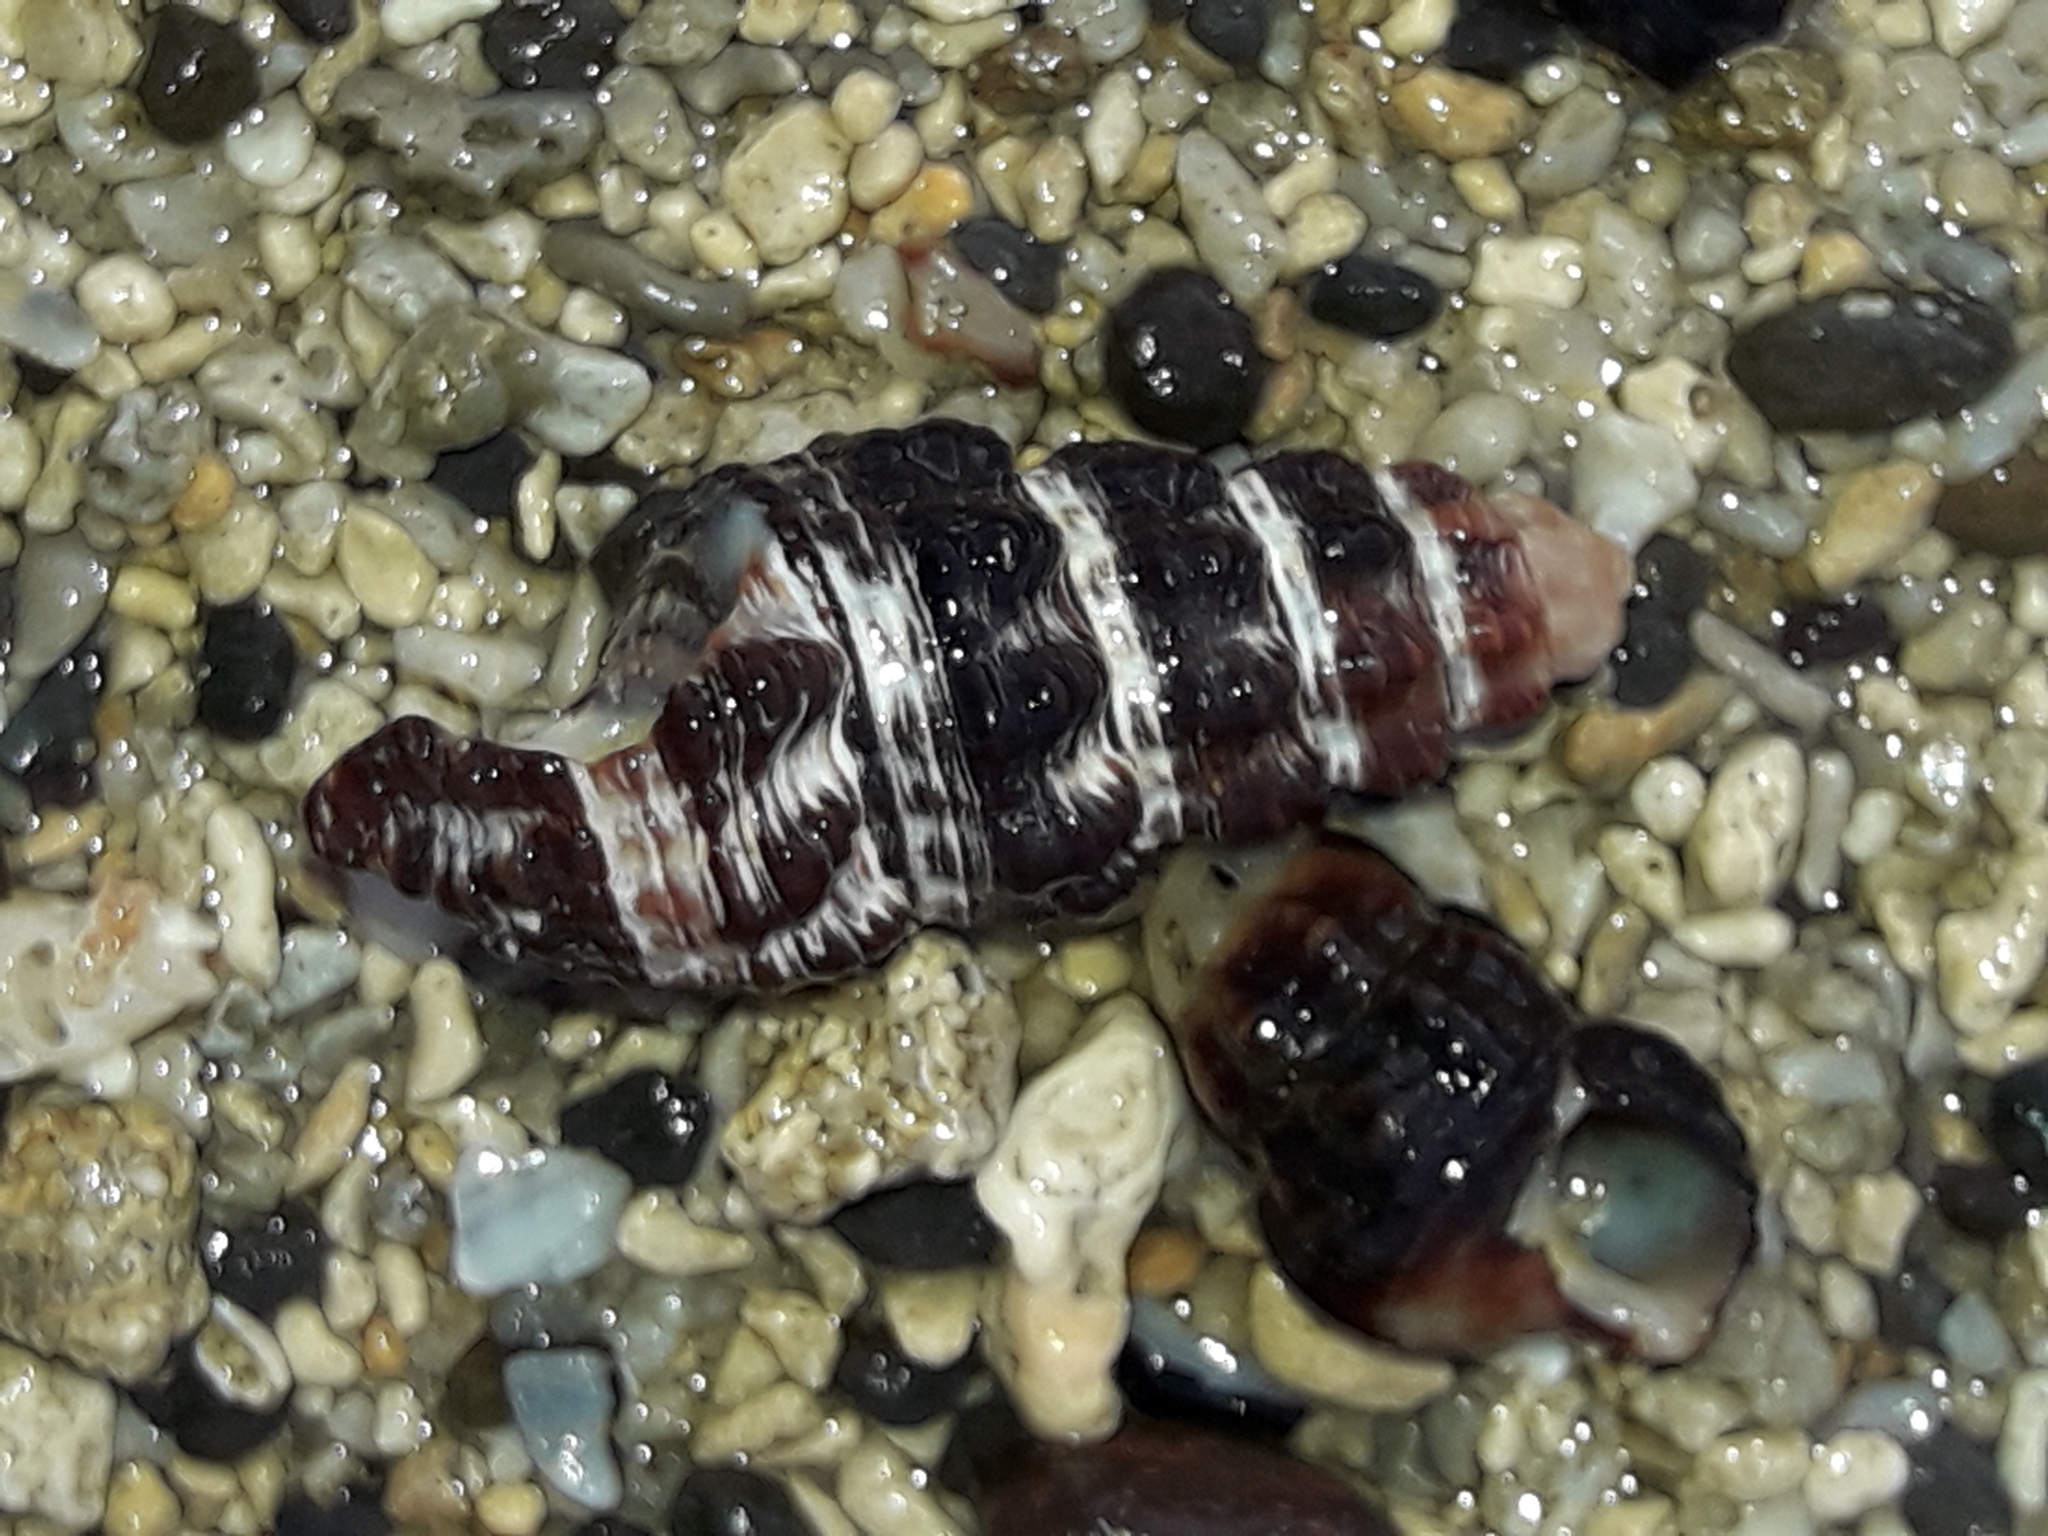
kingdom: Animalia
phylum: Mollusca
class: Gastropoda
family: Batillariidae
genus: Batillaria
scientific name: Batillaria australis
